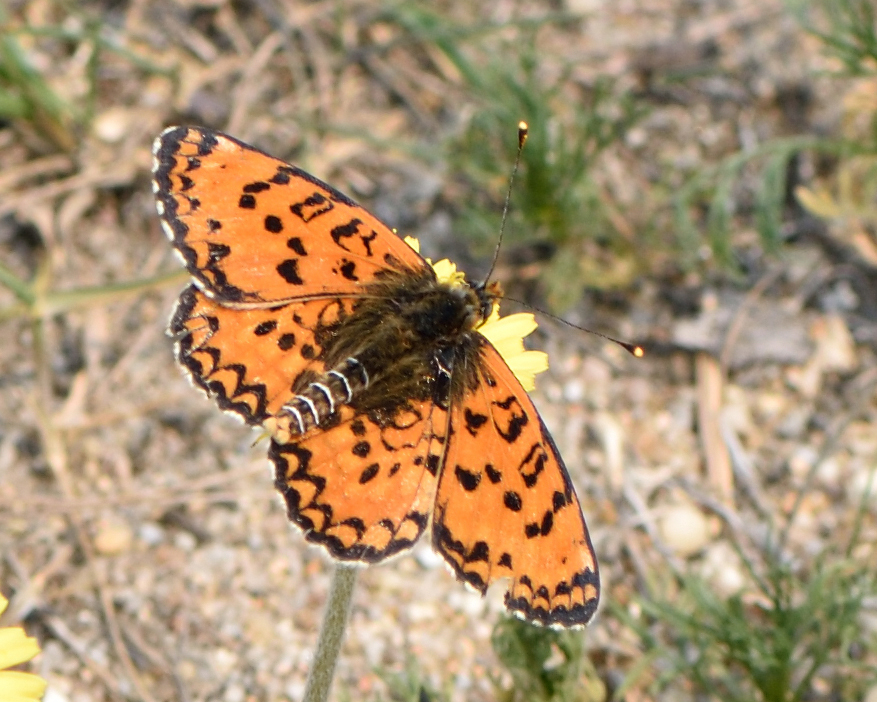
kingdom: Animalia
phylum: Arthropoda
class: Insecta
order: Lepidoptera
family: Nymphalidae
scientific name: Nymphalidae
